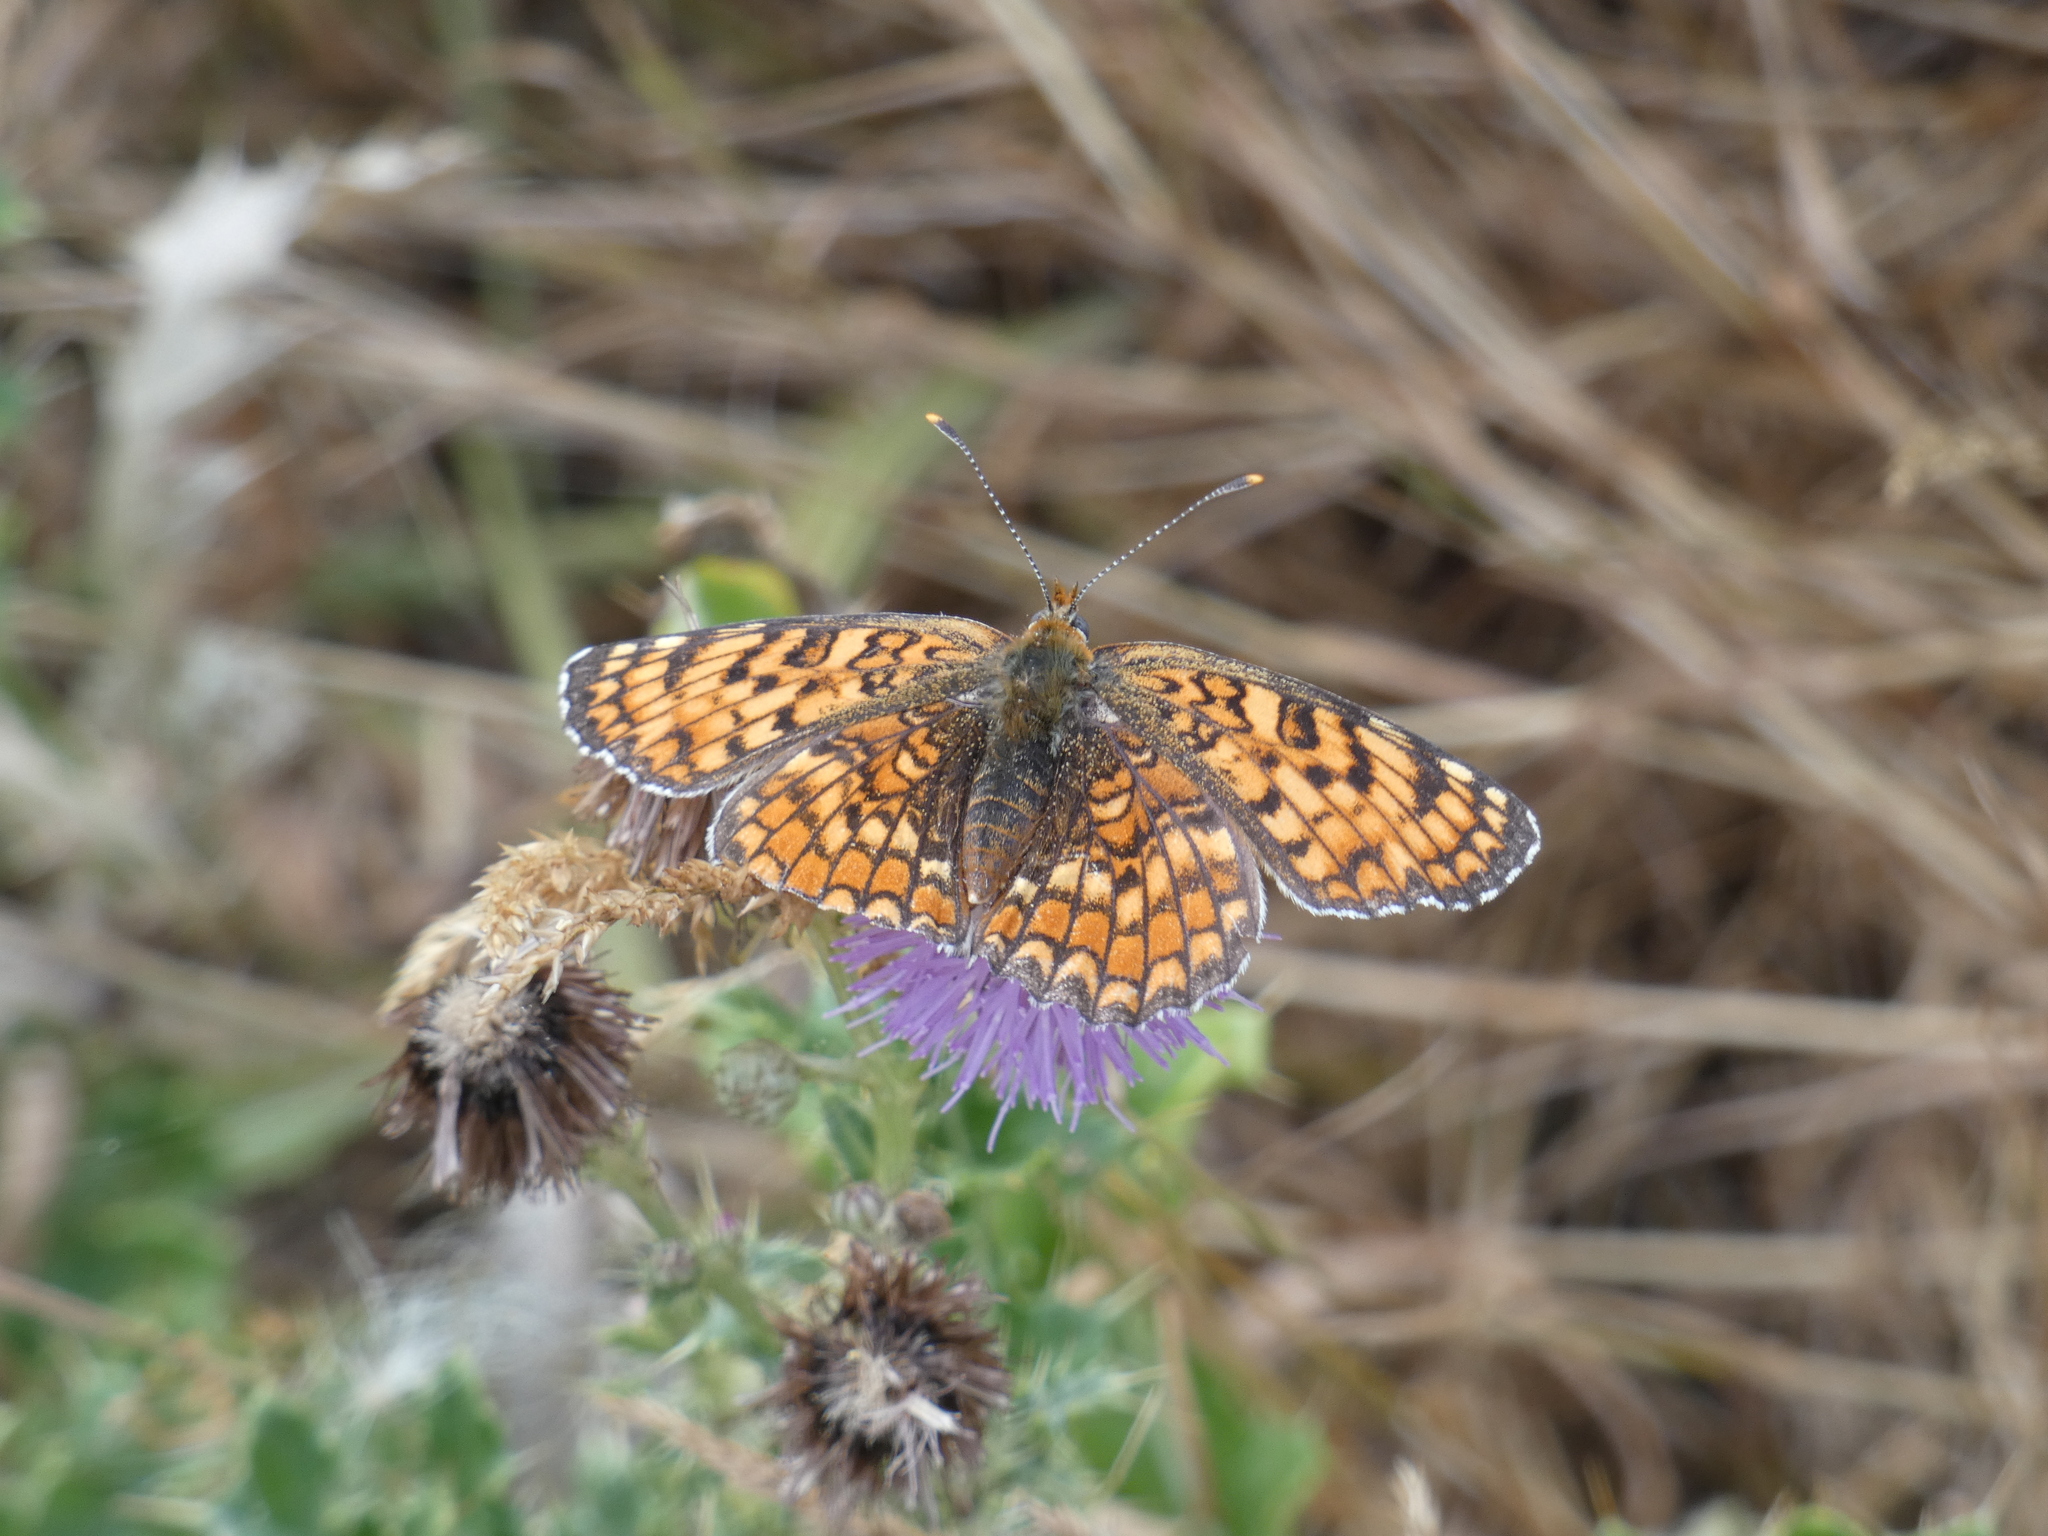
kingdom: Animalia
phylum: Arthropoda
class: Insecta
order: Lepidoptera
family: Nymphalidae
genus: Melitaea
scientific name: Melitaea phoebe
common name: Knapweed fritillary
